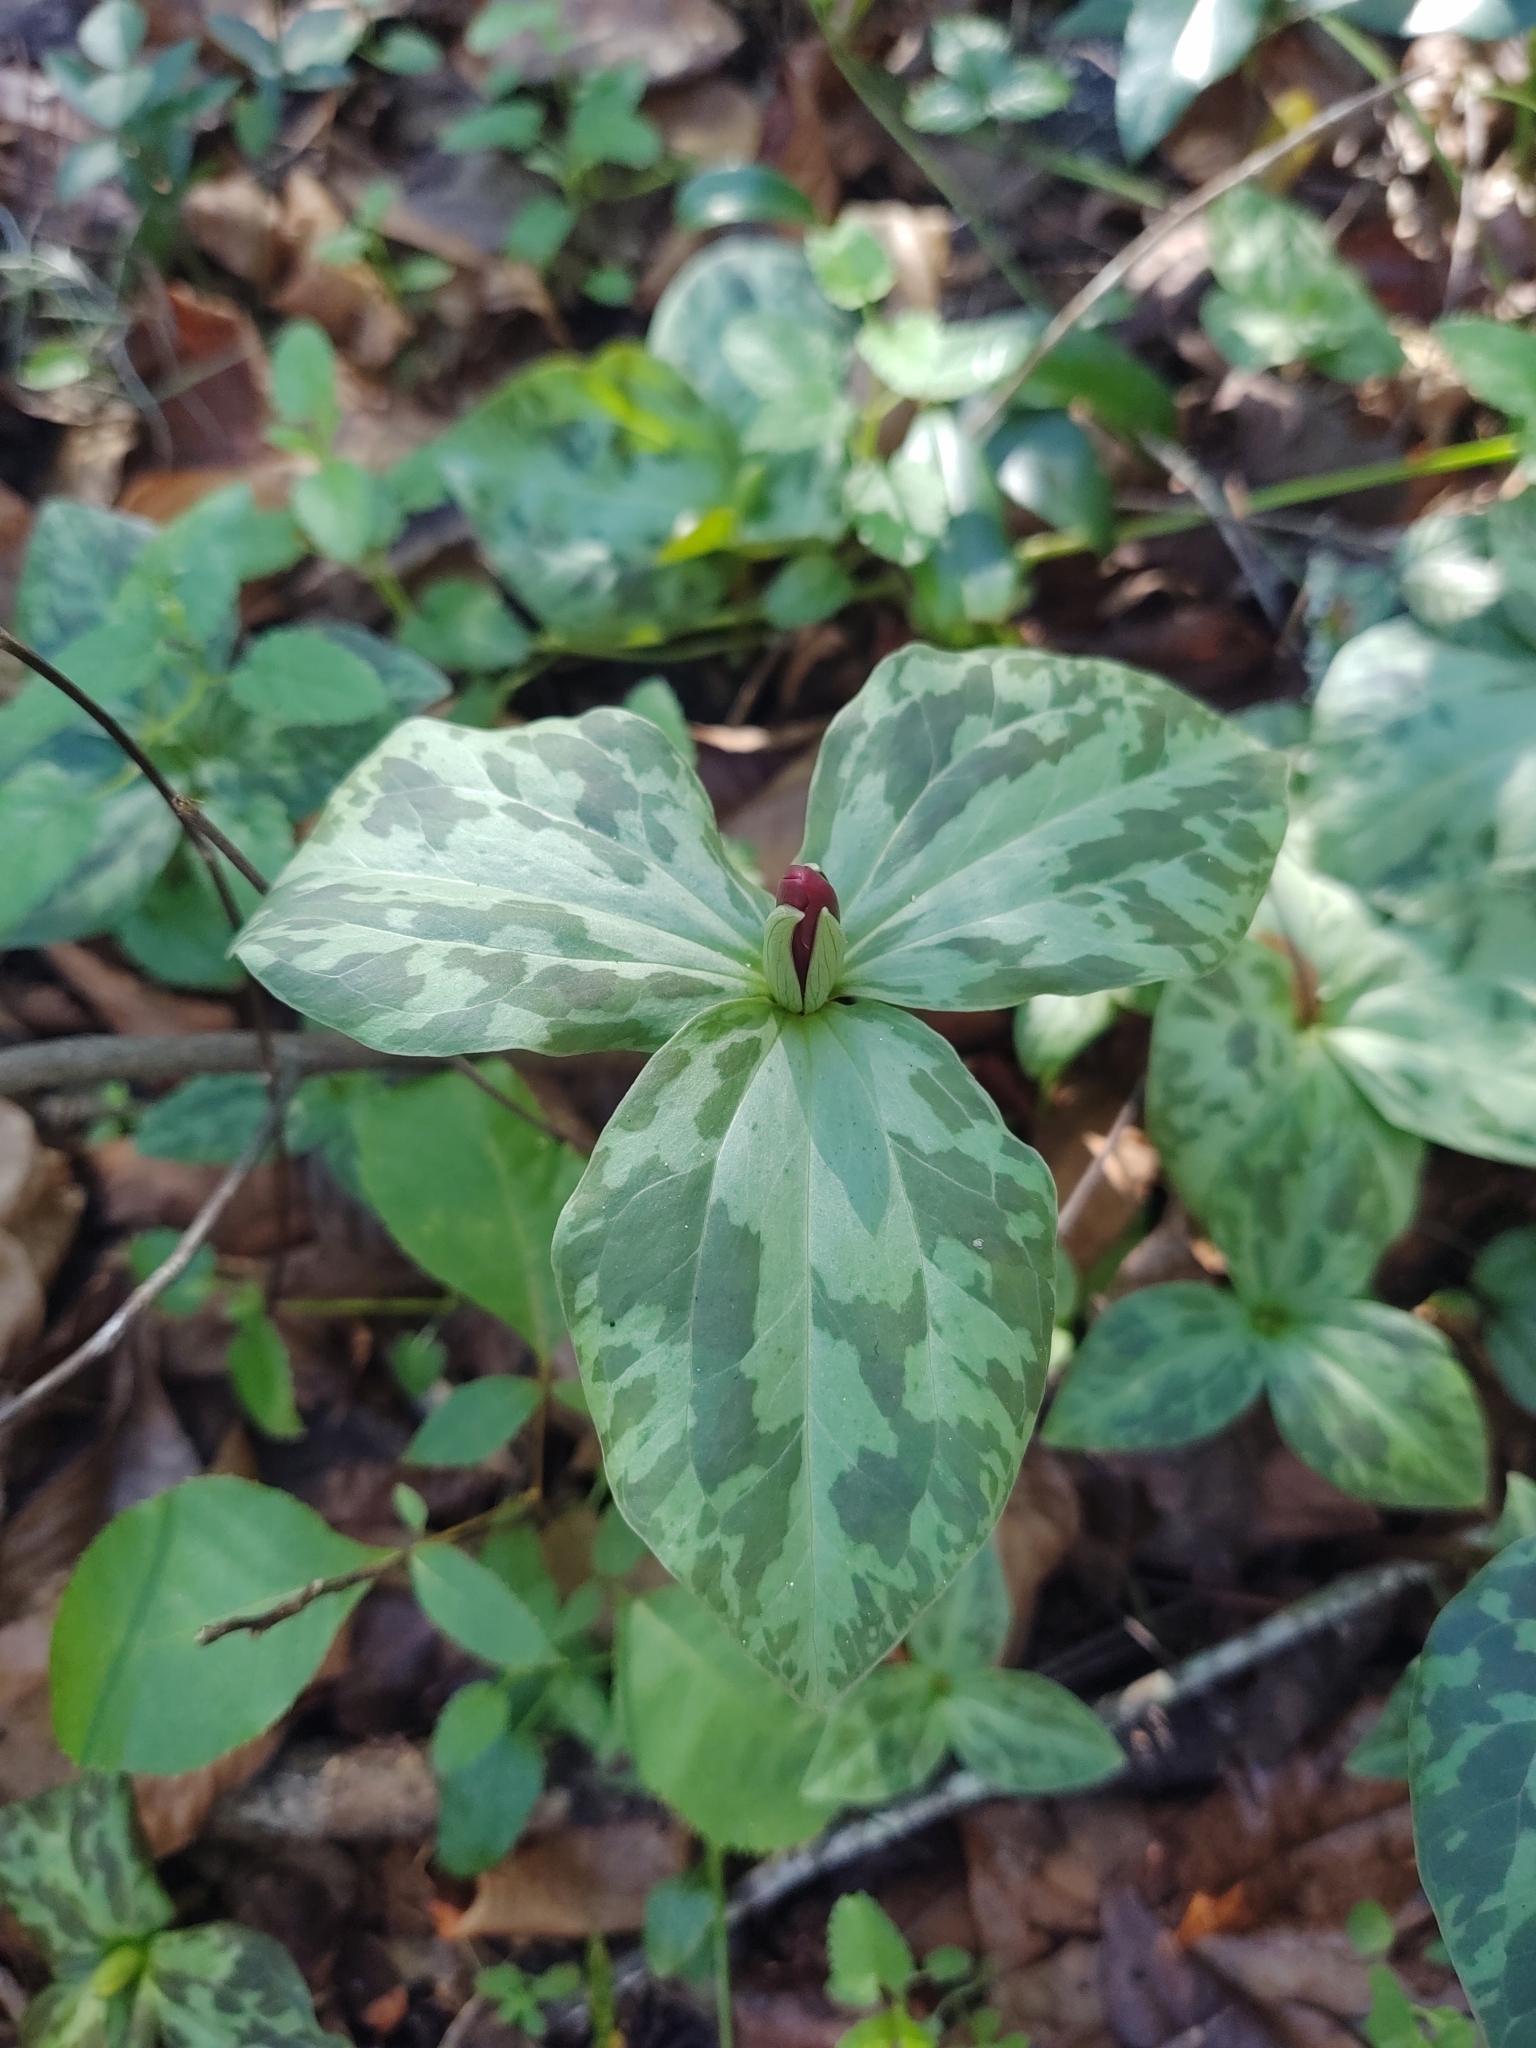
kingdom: Plantae
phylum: Tracheophyta
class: Liliopsida
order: Liliales
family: Melanthiaceae
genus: Trillium
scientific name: Trillium maculatum
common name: Mottled trillium
